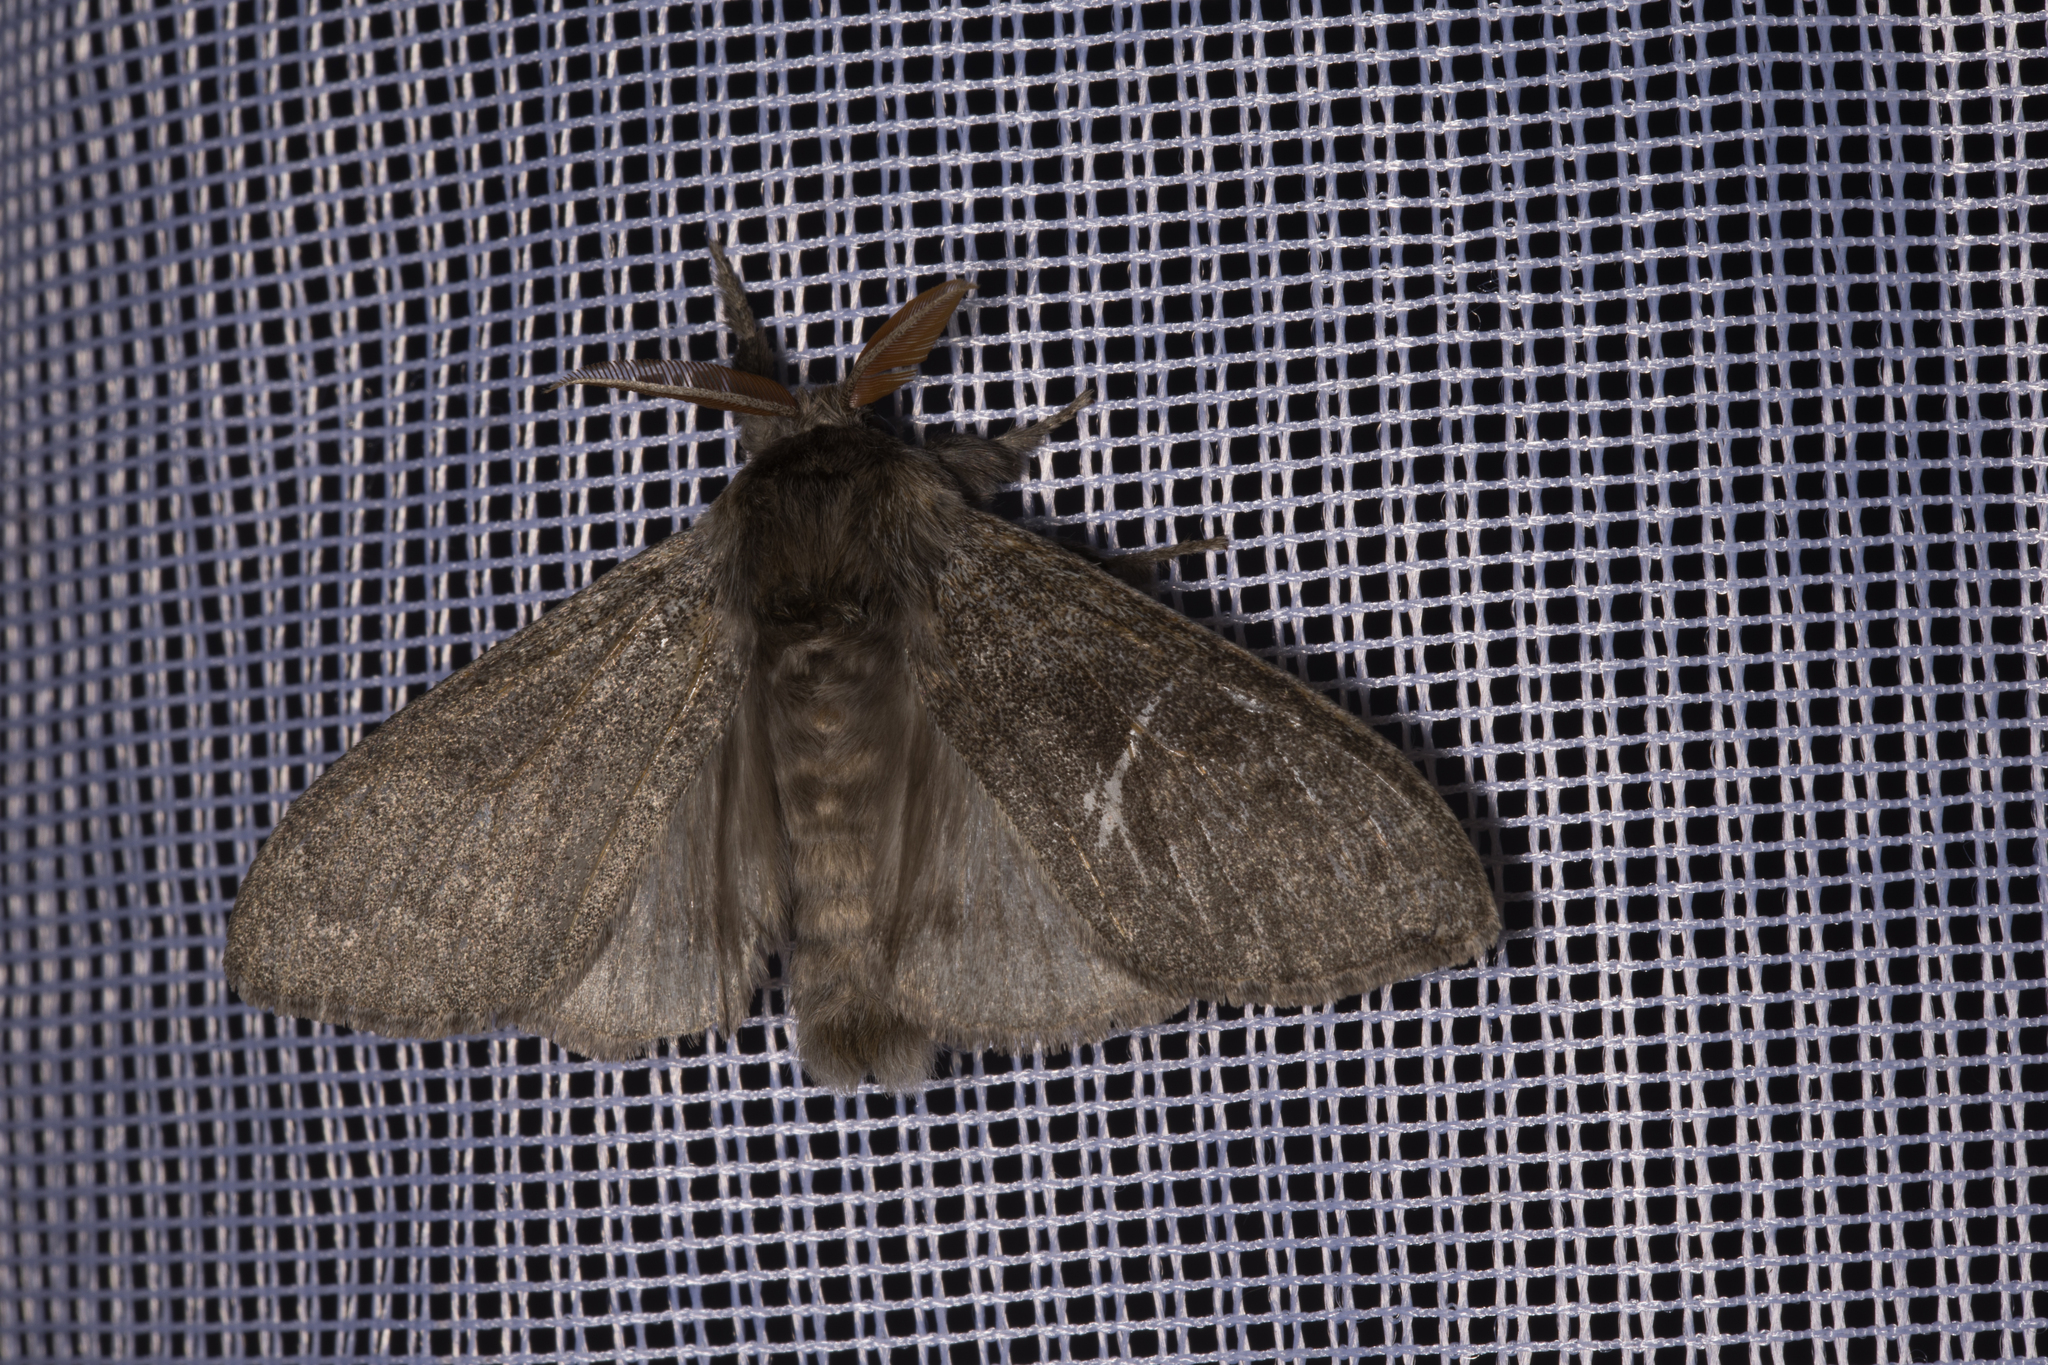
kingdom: Animalia
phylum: Arthropoda
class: Insecta
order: Lepidoptera
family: Erebidae
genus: Calliteara
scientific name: Calliteara pudibunda
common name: Pale tussock
